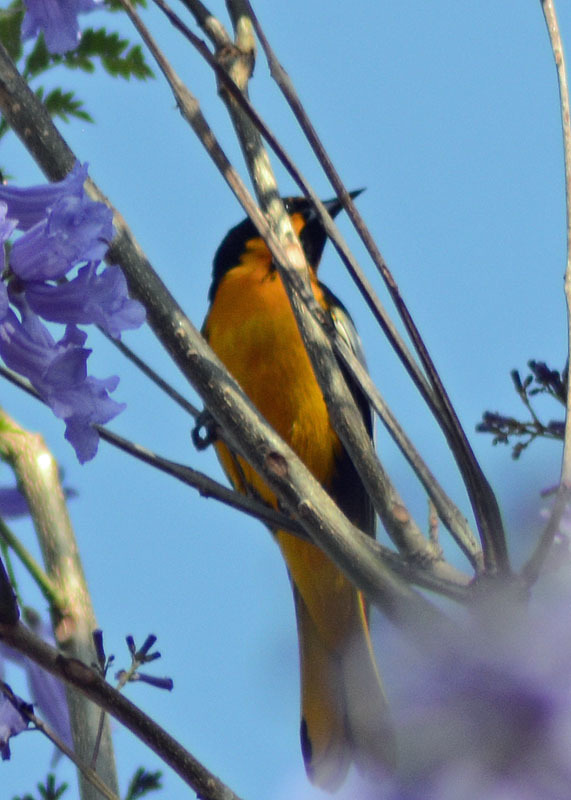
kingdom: Animalia
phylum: Chordata
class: Aves
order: Passeriformes
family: Icteridae
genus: Icterus
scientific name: Icterus abeillei
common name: Black-backed oriole
